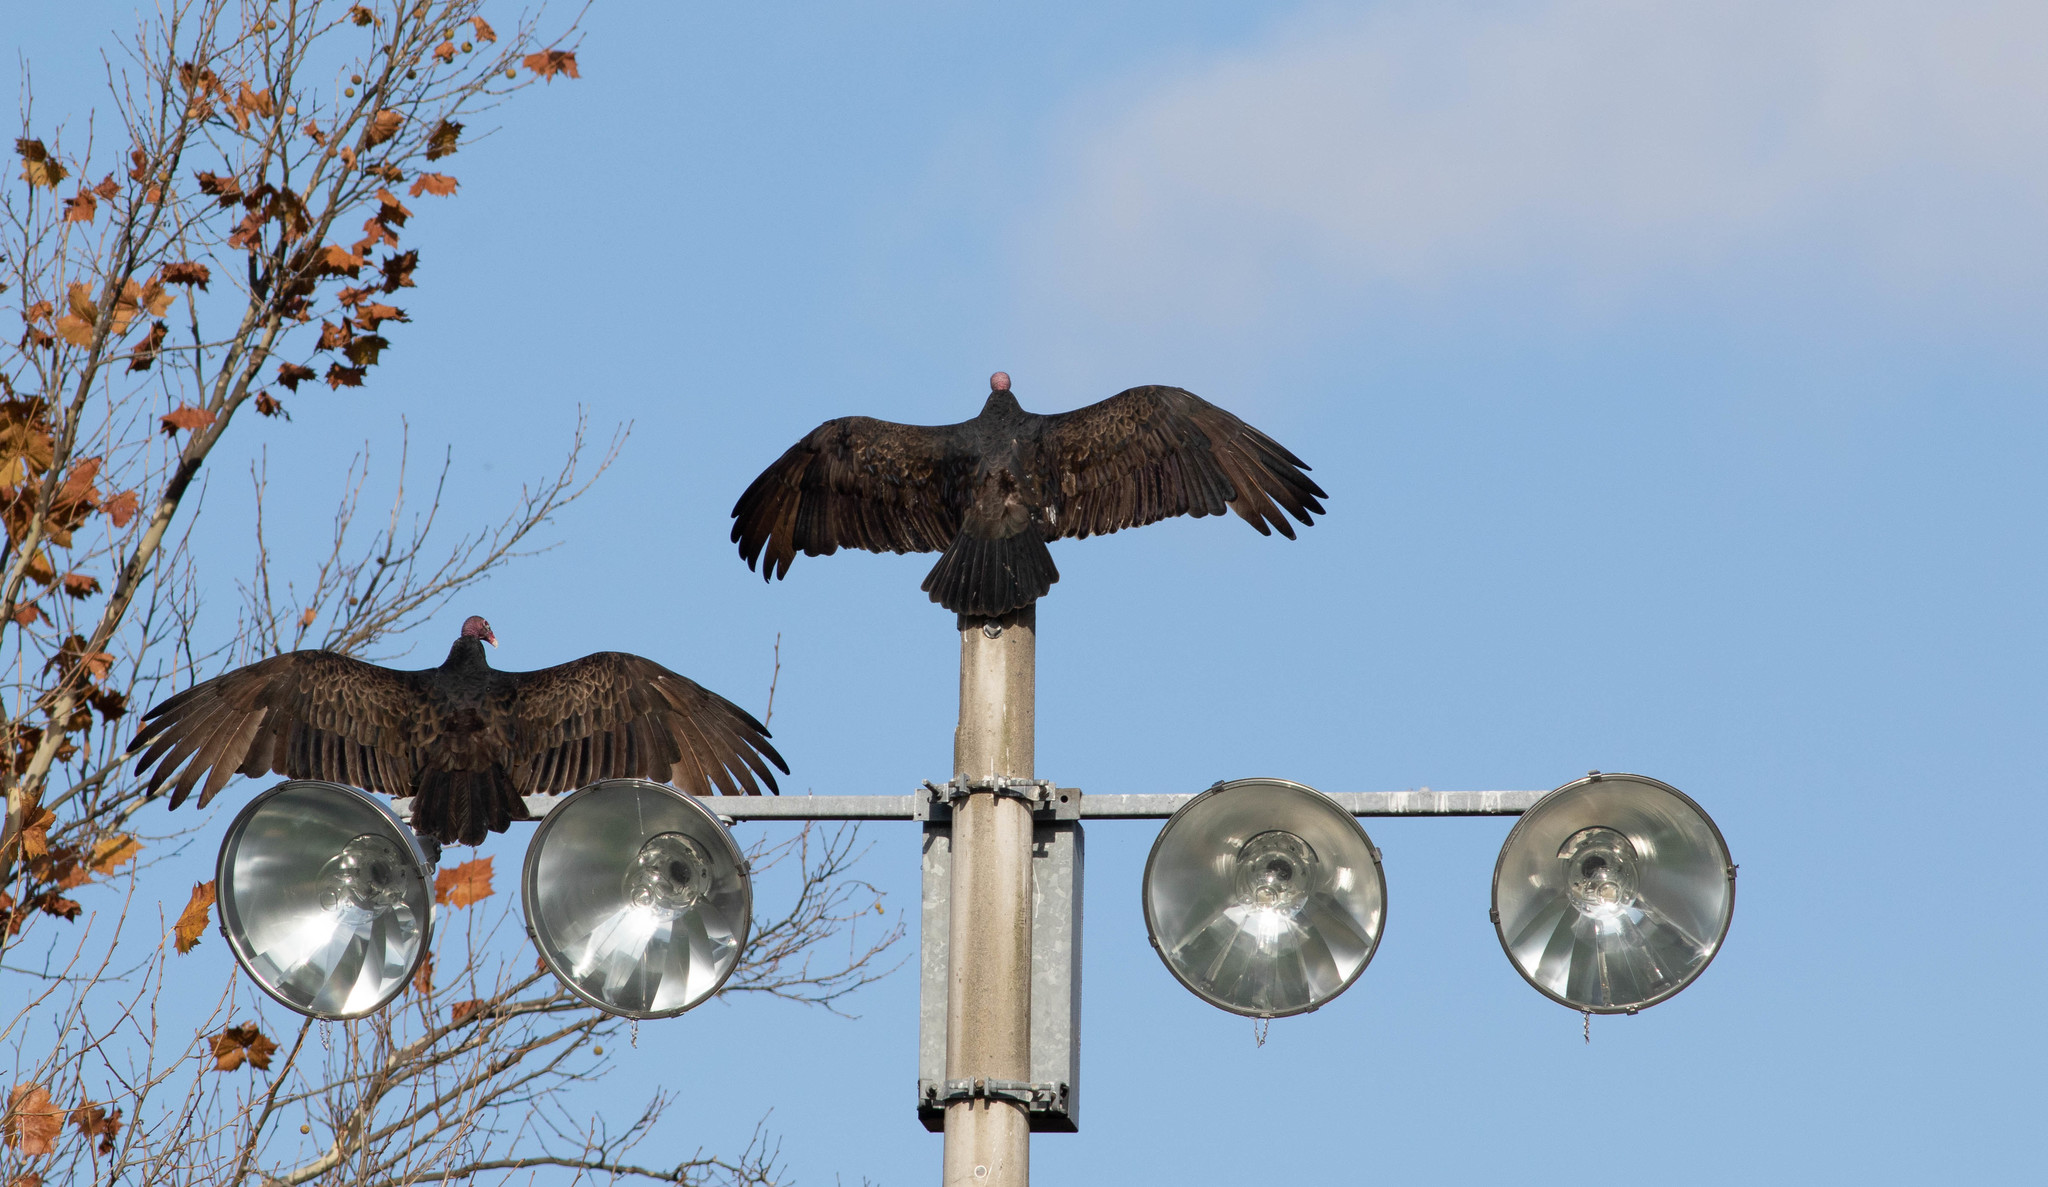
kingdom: Animalia
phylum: Chordata
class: Aves
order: Accipitriformes
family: Cathartidae
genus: Cathartes
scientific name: Cathartes aura
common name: Turkey vulture
